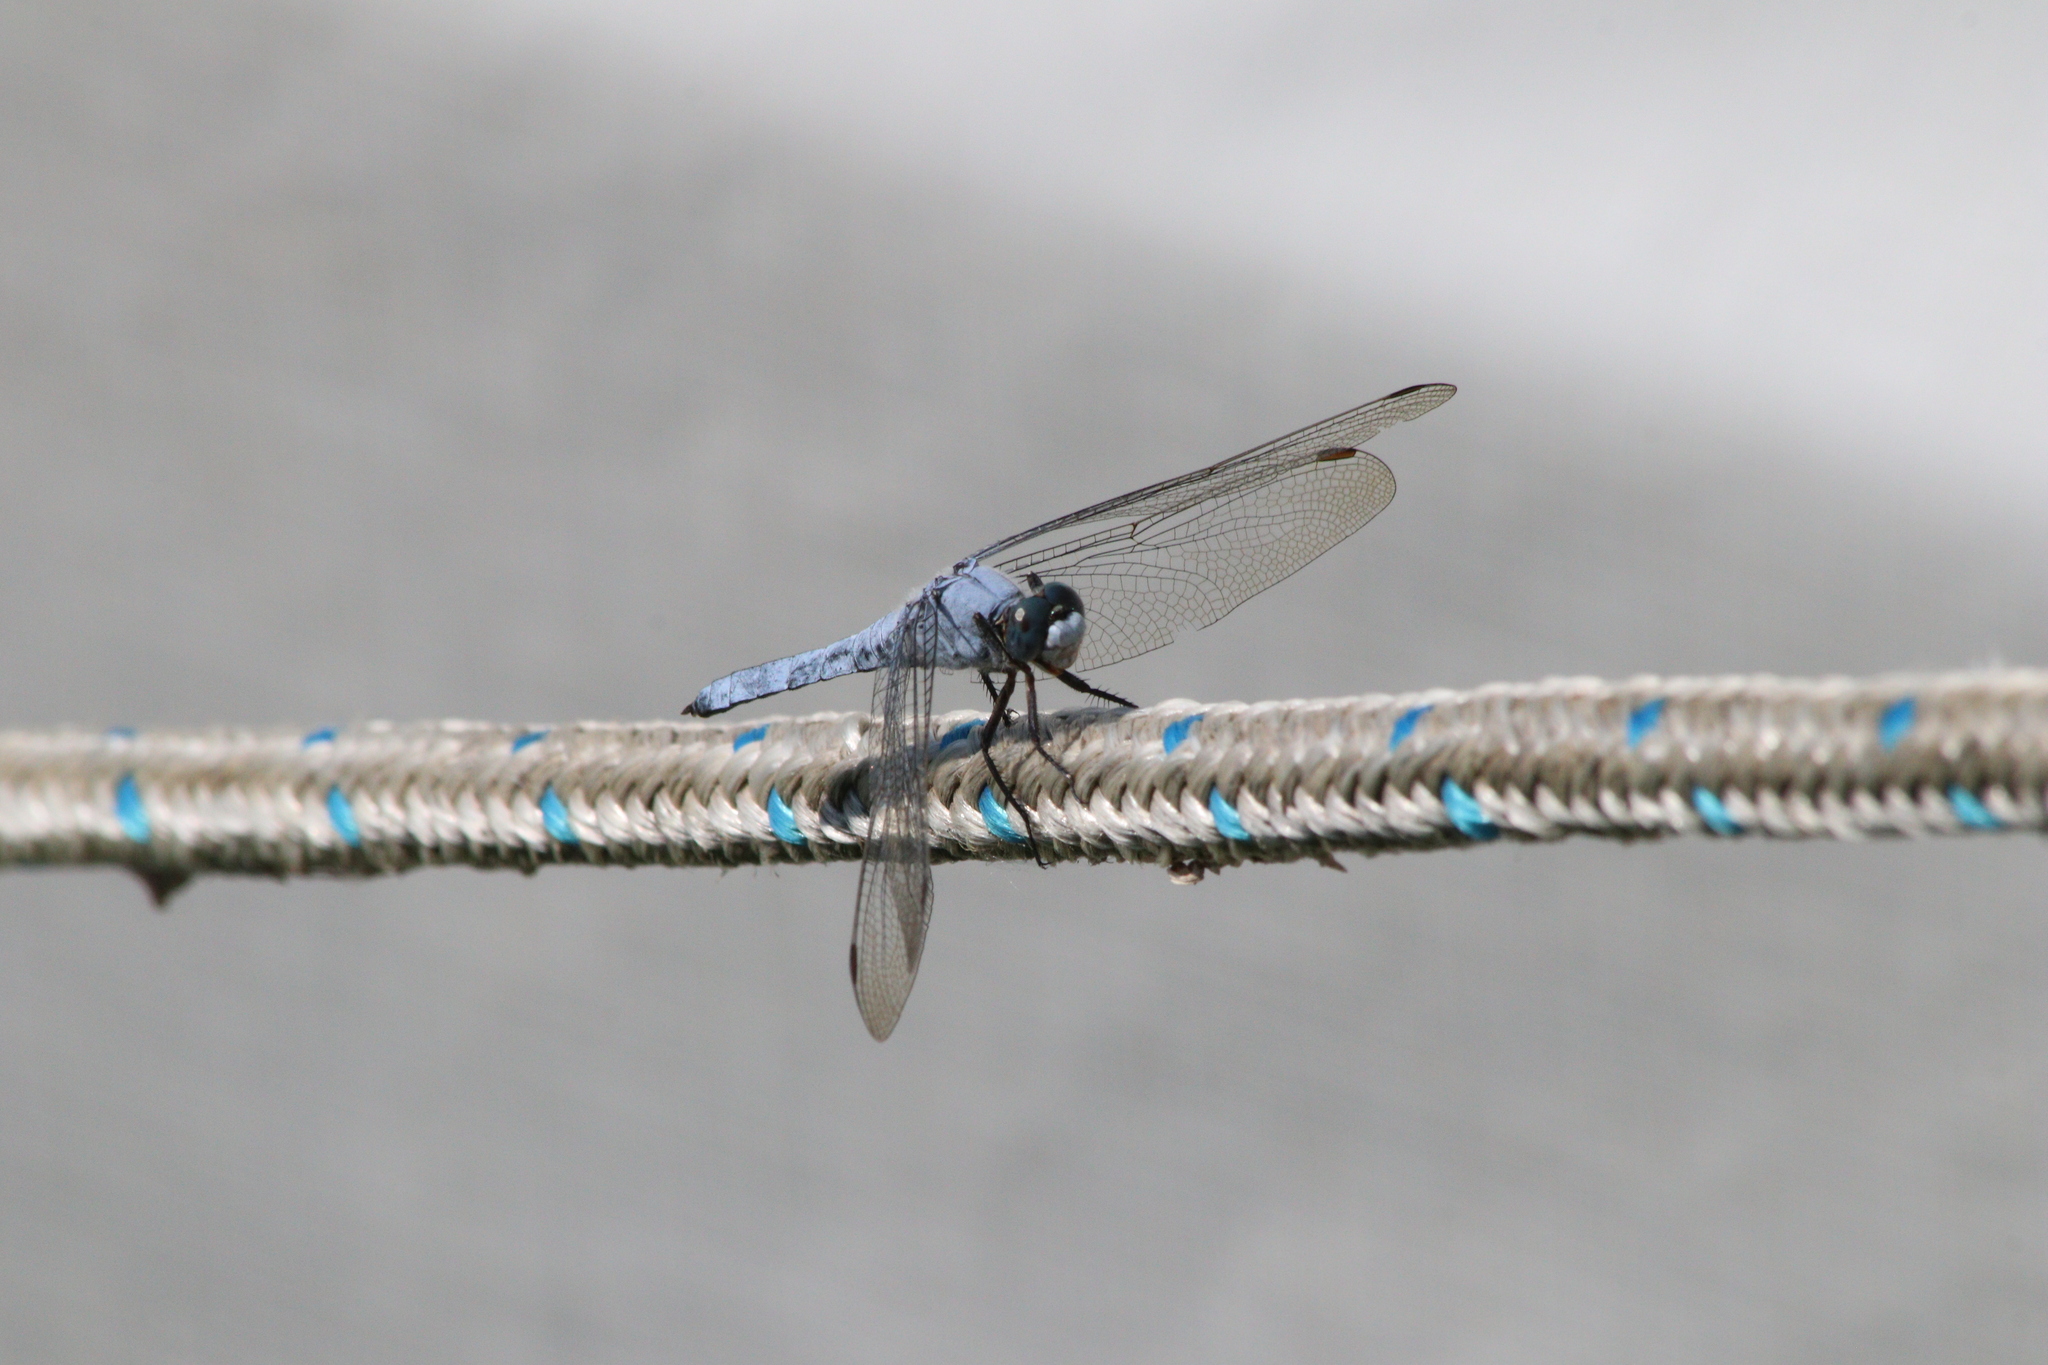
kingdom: Animalia
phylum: Arthropoda
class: Insecta
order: Odonata
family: Libellulidae
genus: Orthetrum
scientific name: Orthetrum brunneum
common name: Southern skimmer
